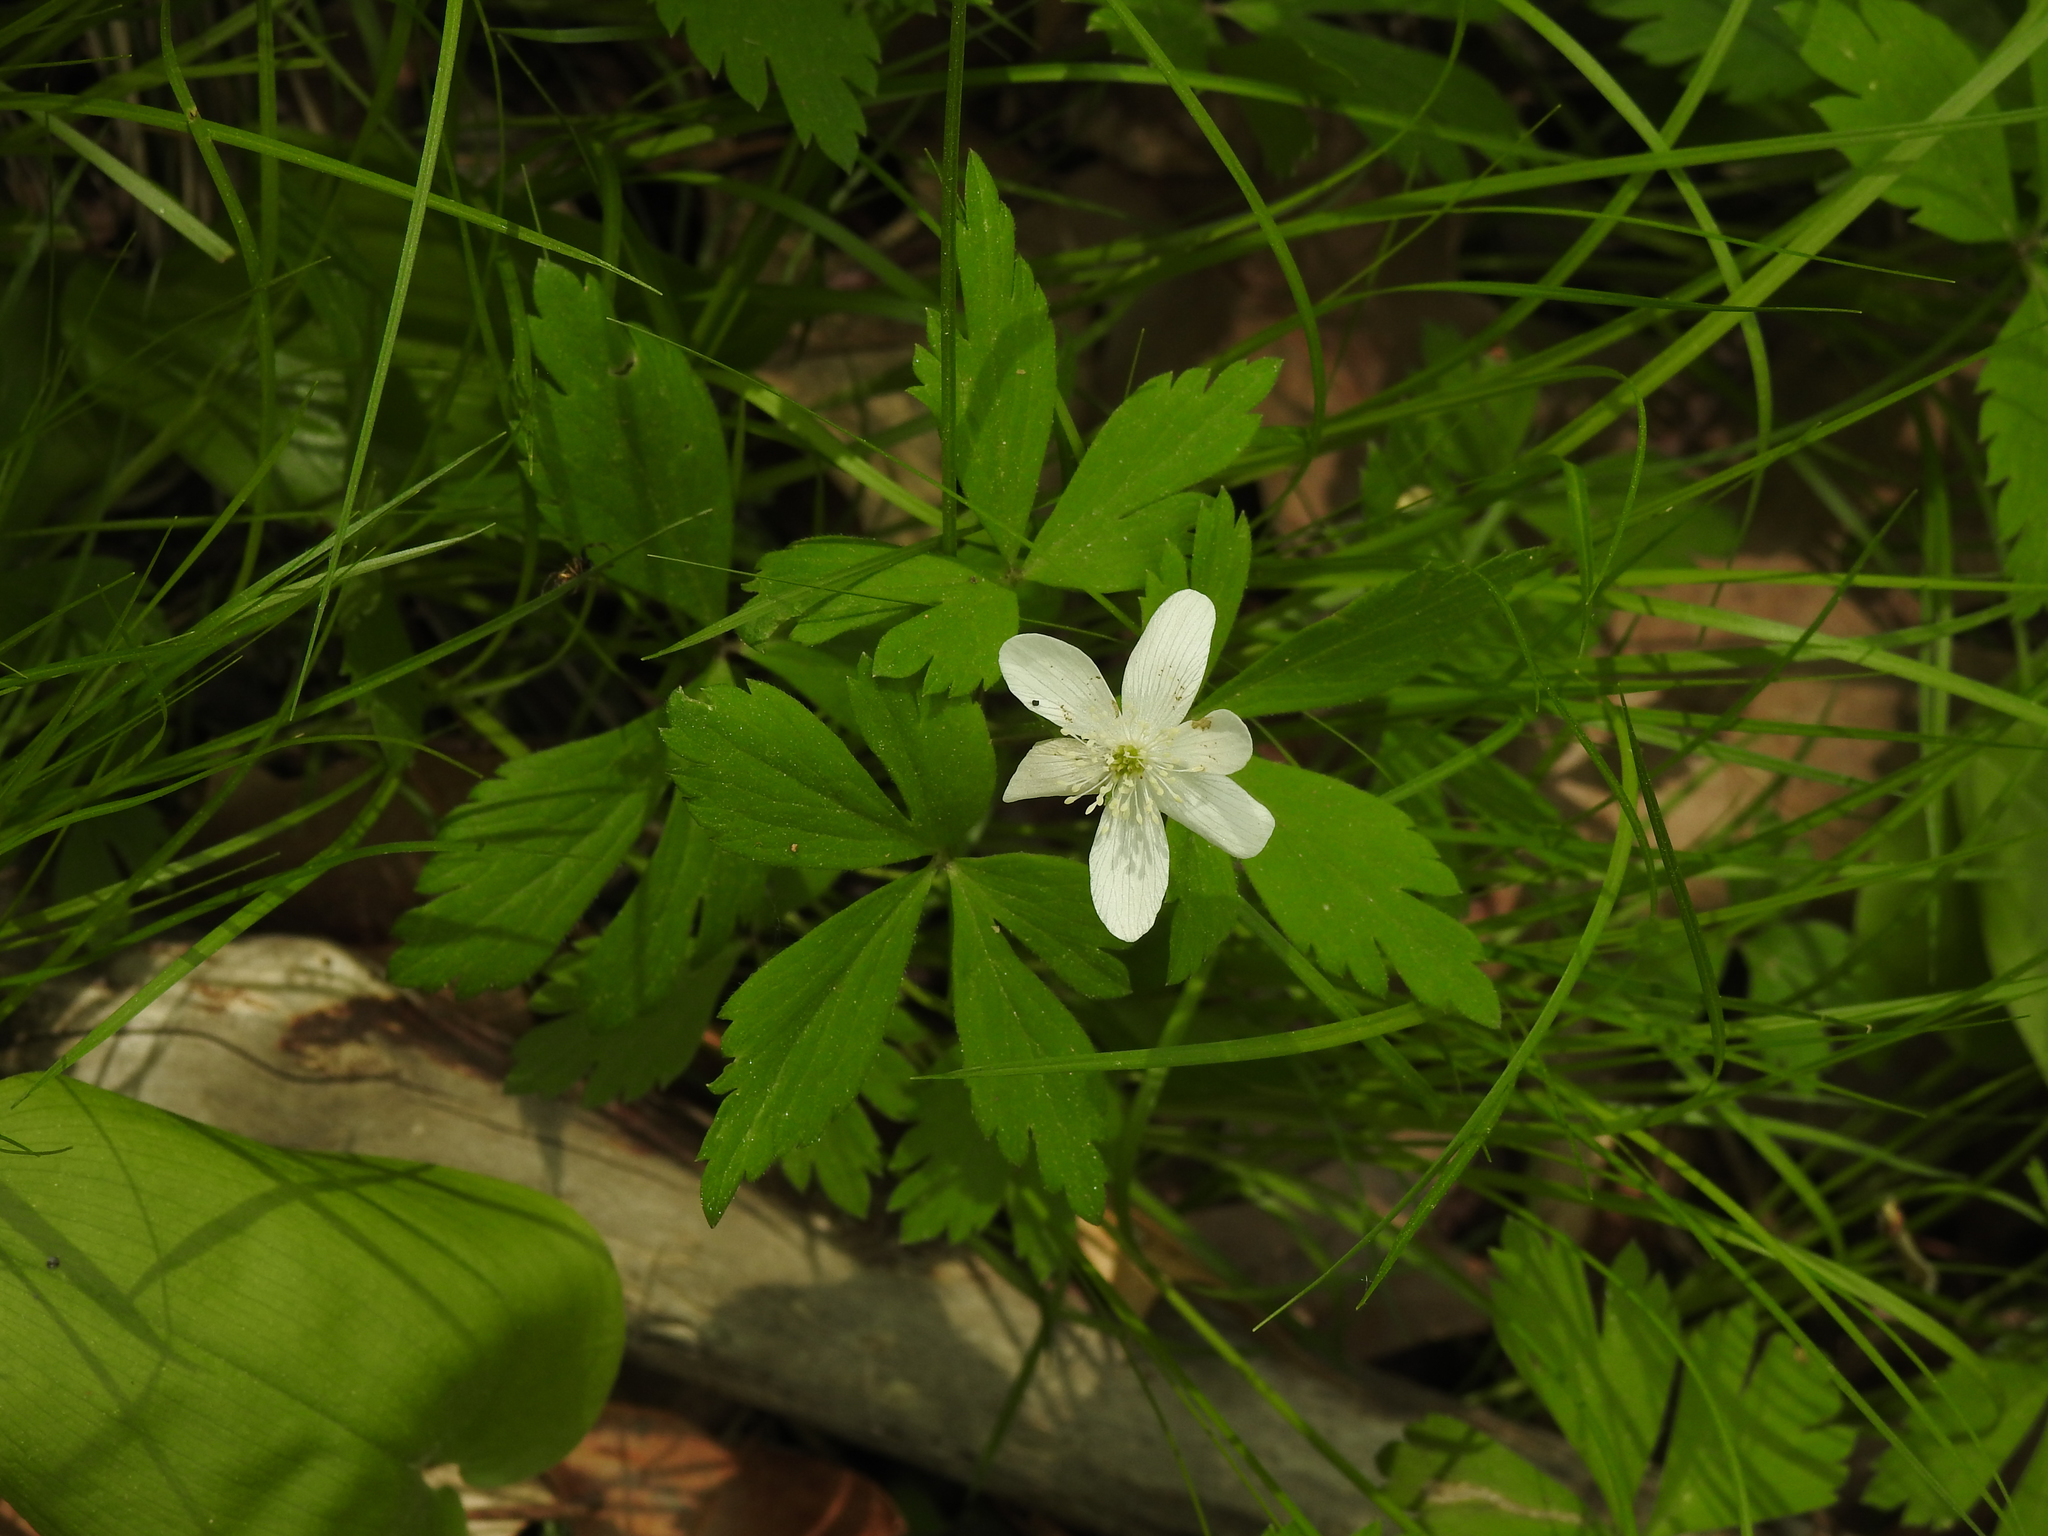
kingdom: Plantae
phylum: Tracheophyta
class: Magnoliopsida
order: Ranunculales
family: Ranunculaceae
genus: Anemone
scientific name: Anemone quinquefolia
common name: Wood anemone
